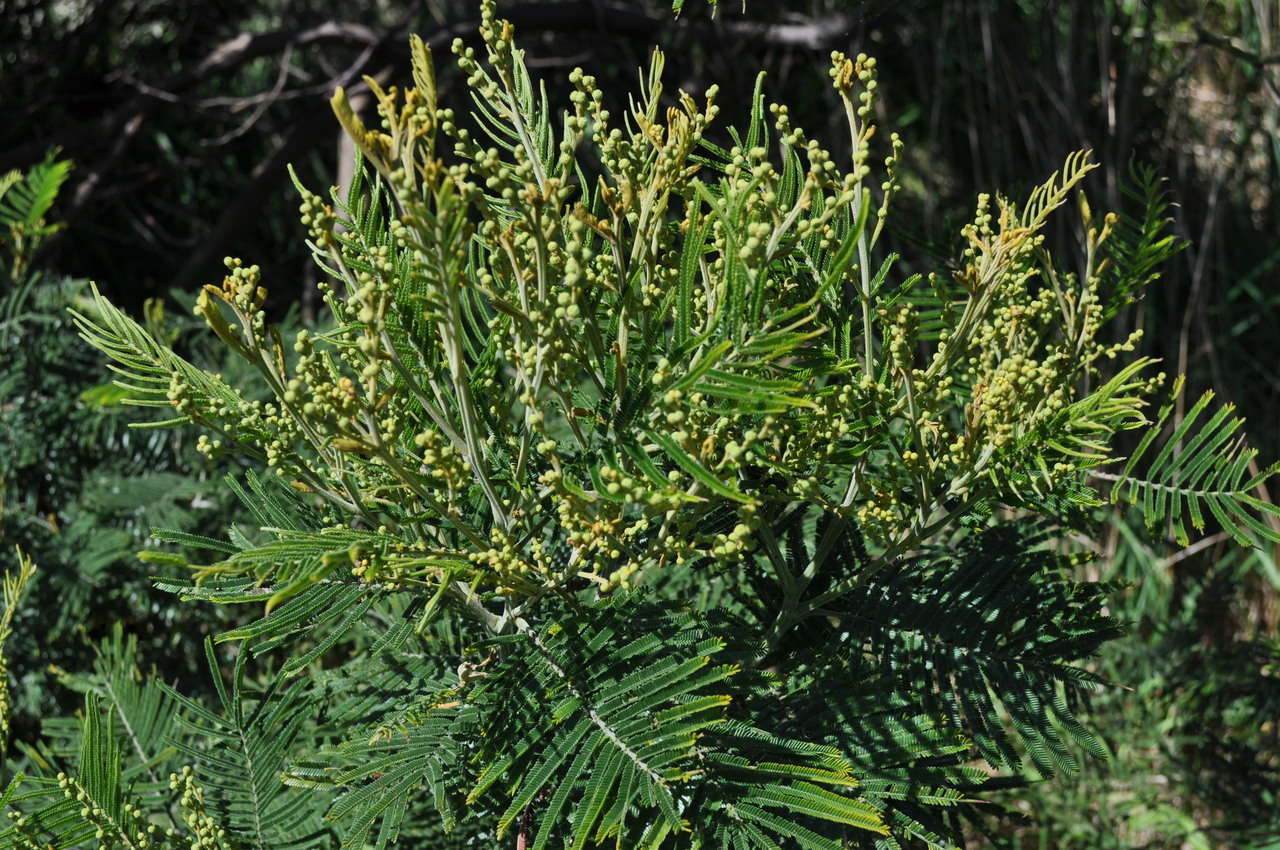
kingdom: Plantae
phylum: Tracheophyta
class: Magnoliopsida
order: Fabales
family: Fabaceae
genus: Acacia
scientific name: Acacia mearnsii
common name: Black wattle
